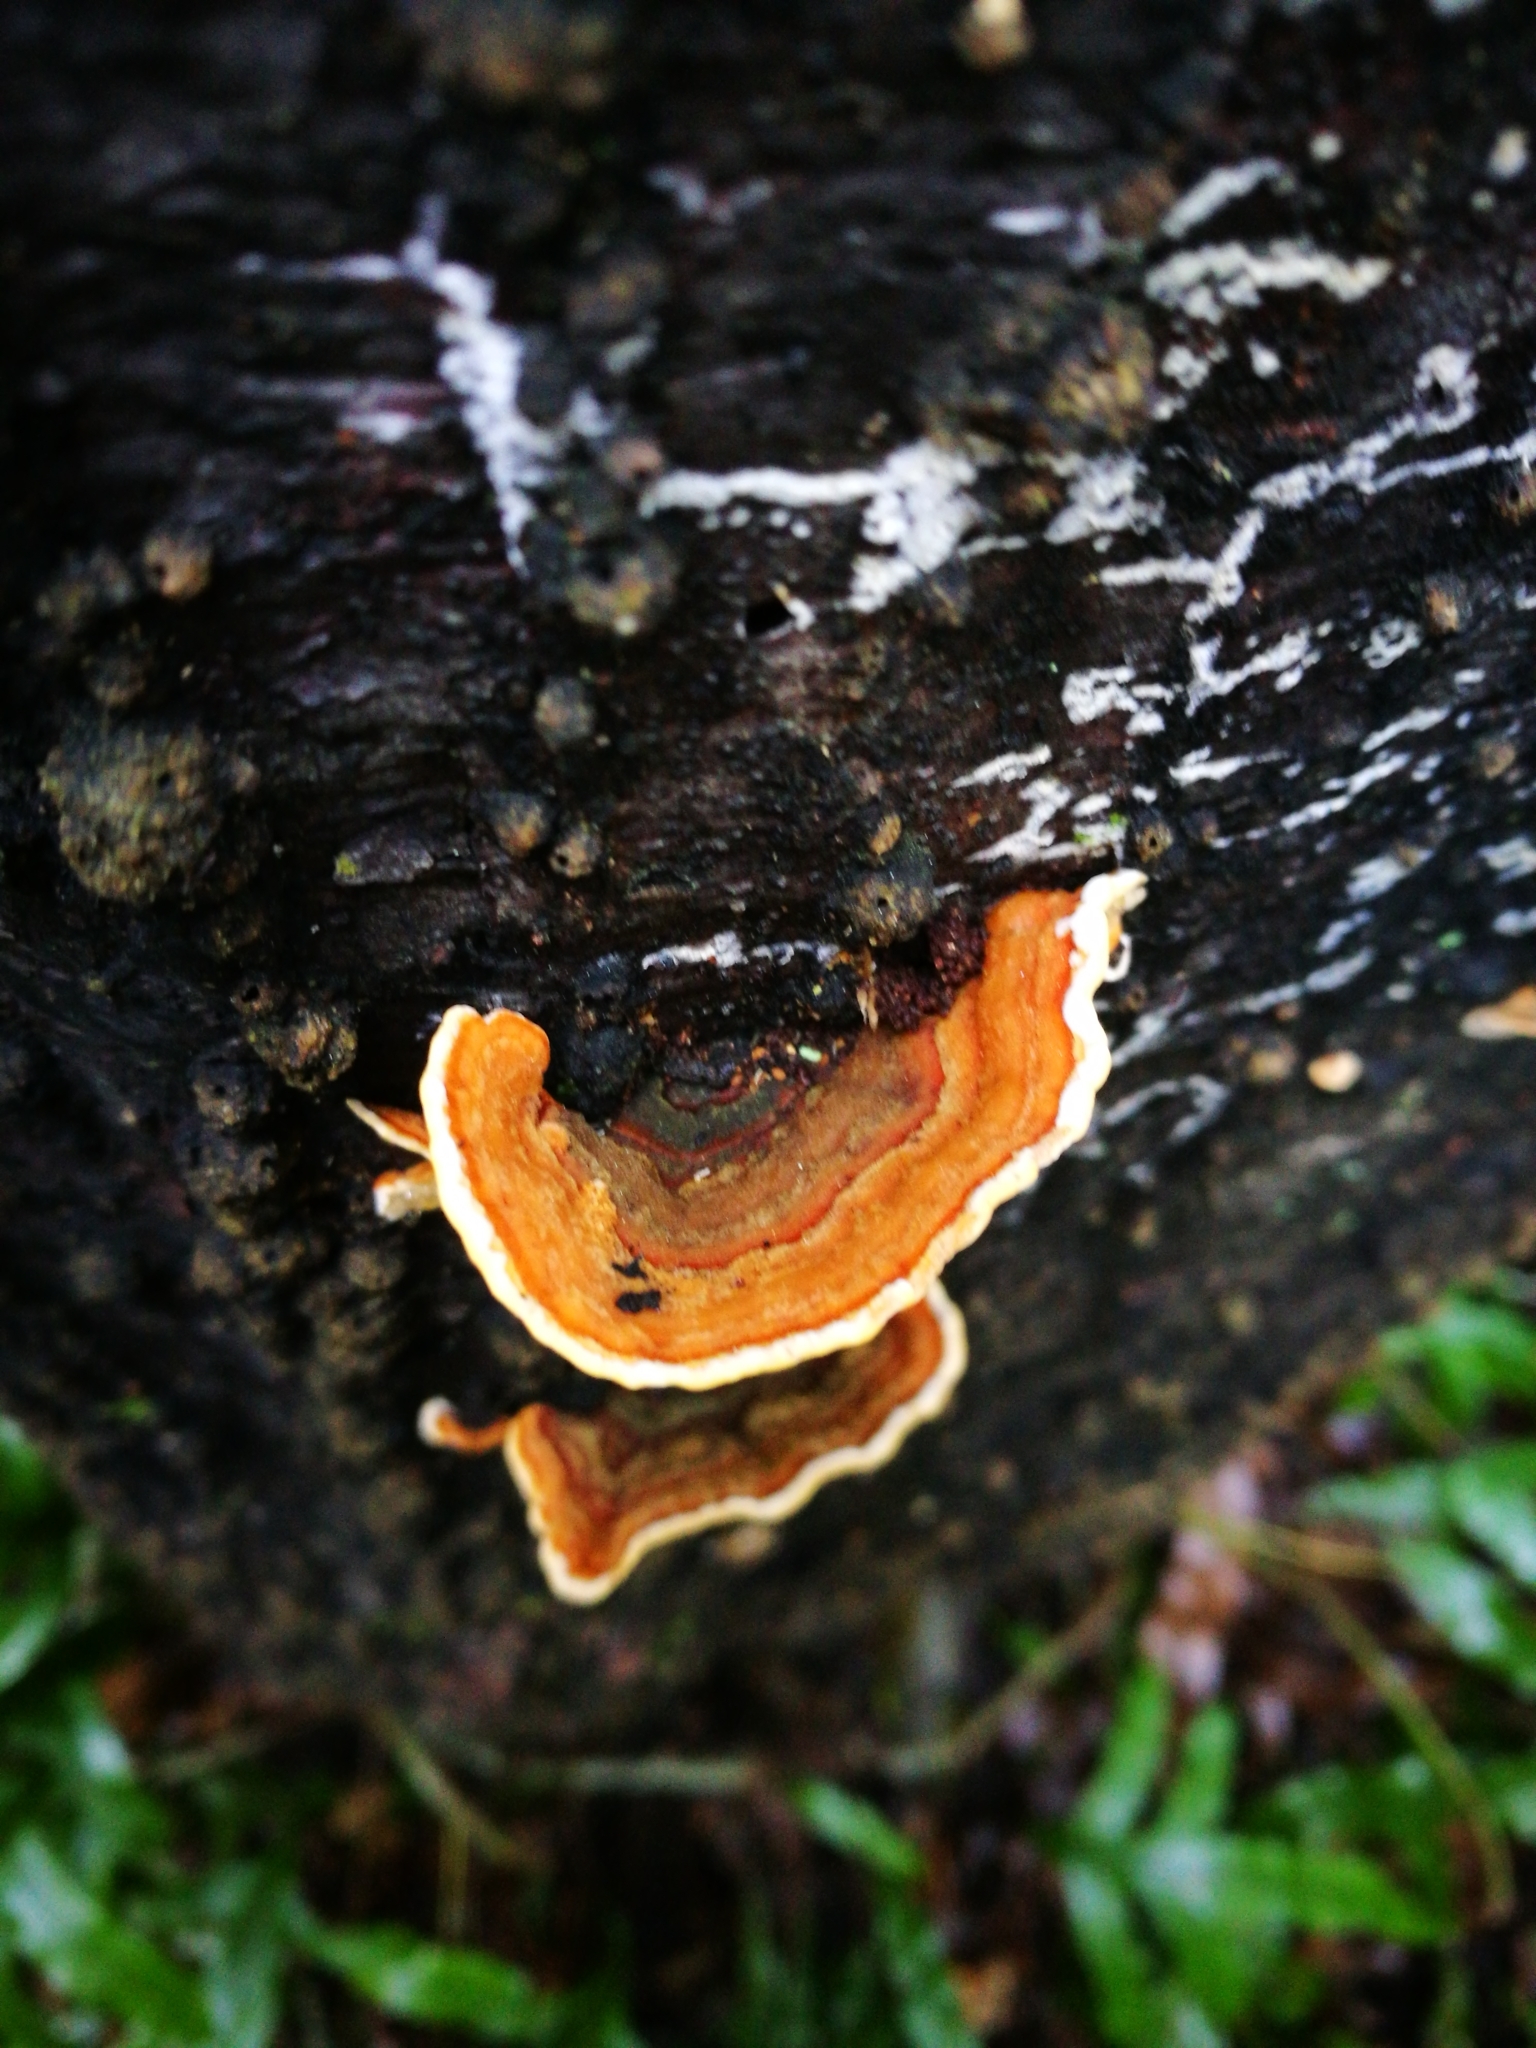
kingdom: Fungi
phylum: Basidiomycota
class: Agaricomycetes
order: Russulales
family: Stereaceae
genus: Stereum
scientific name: Stereum hirsutum
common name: Hairy curtain crust
